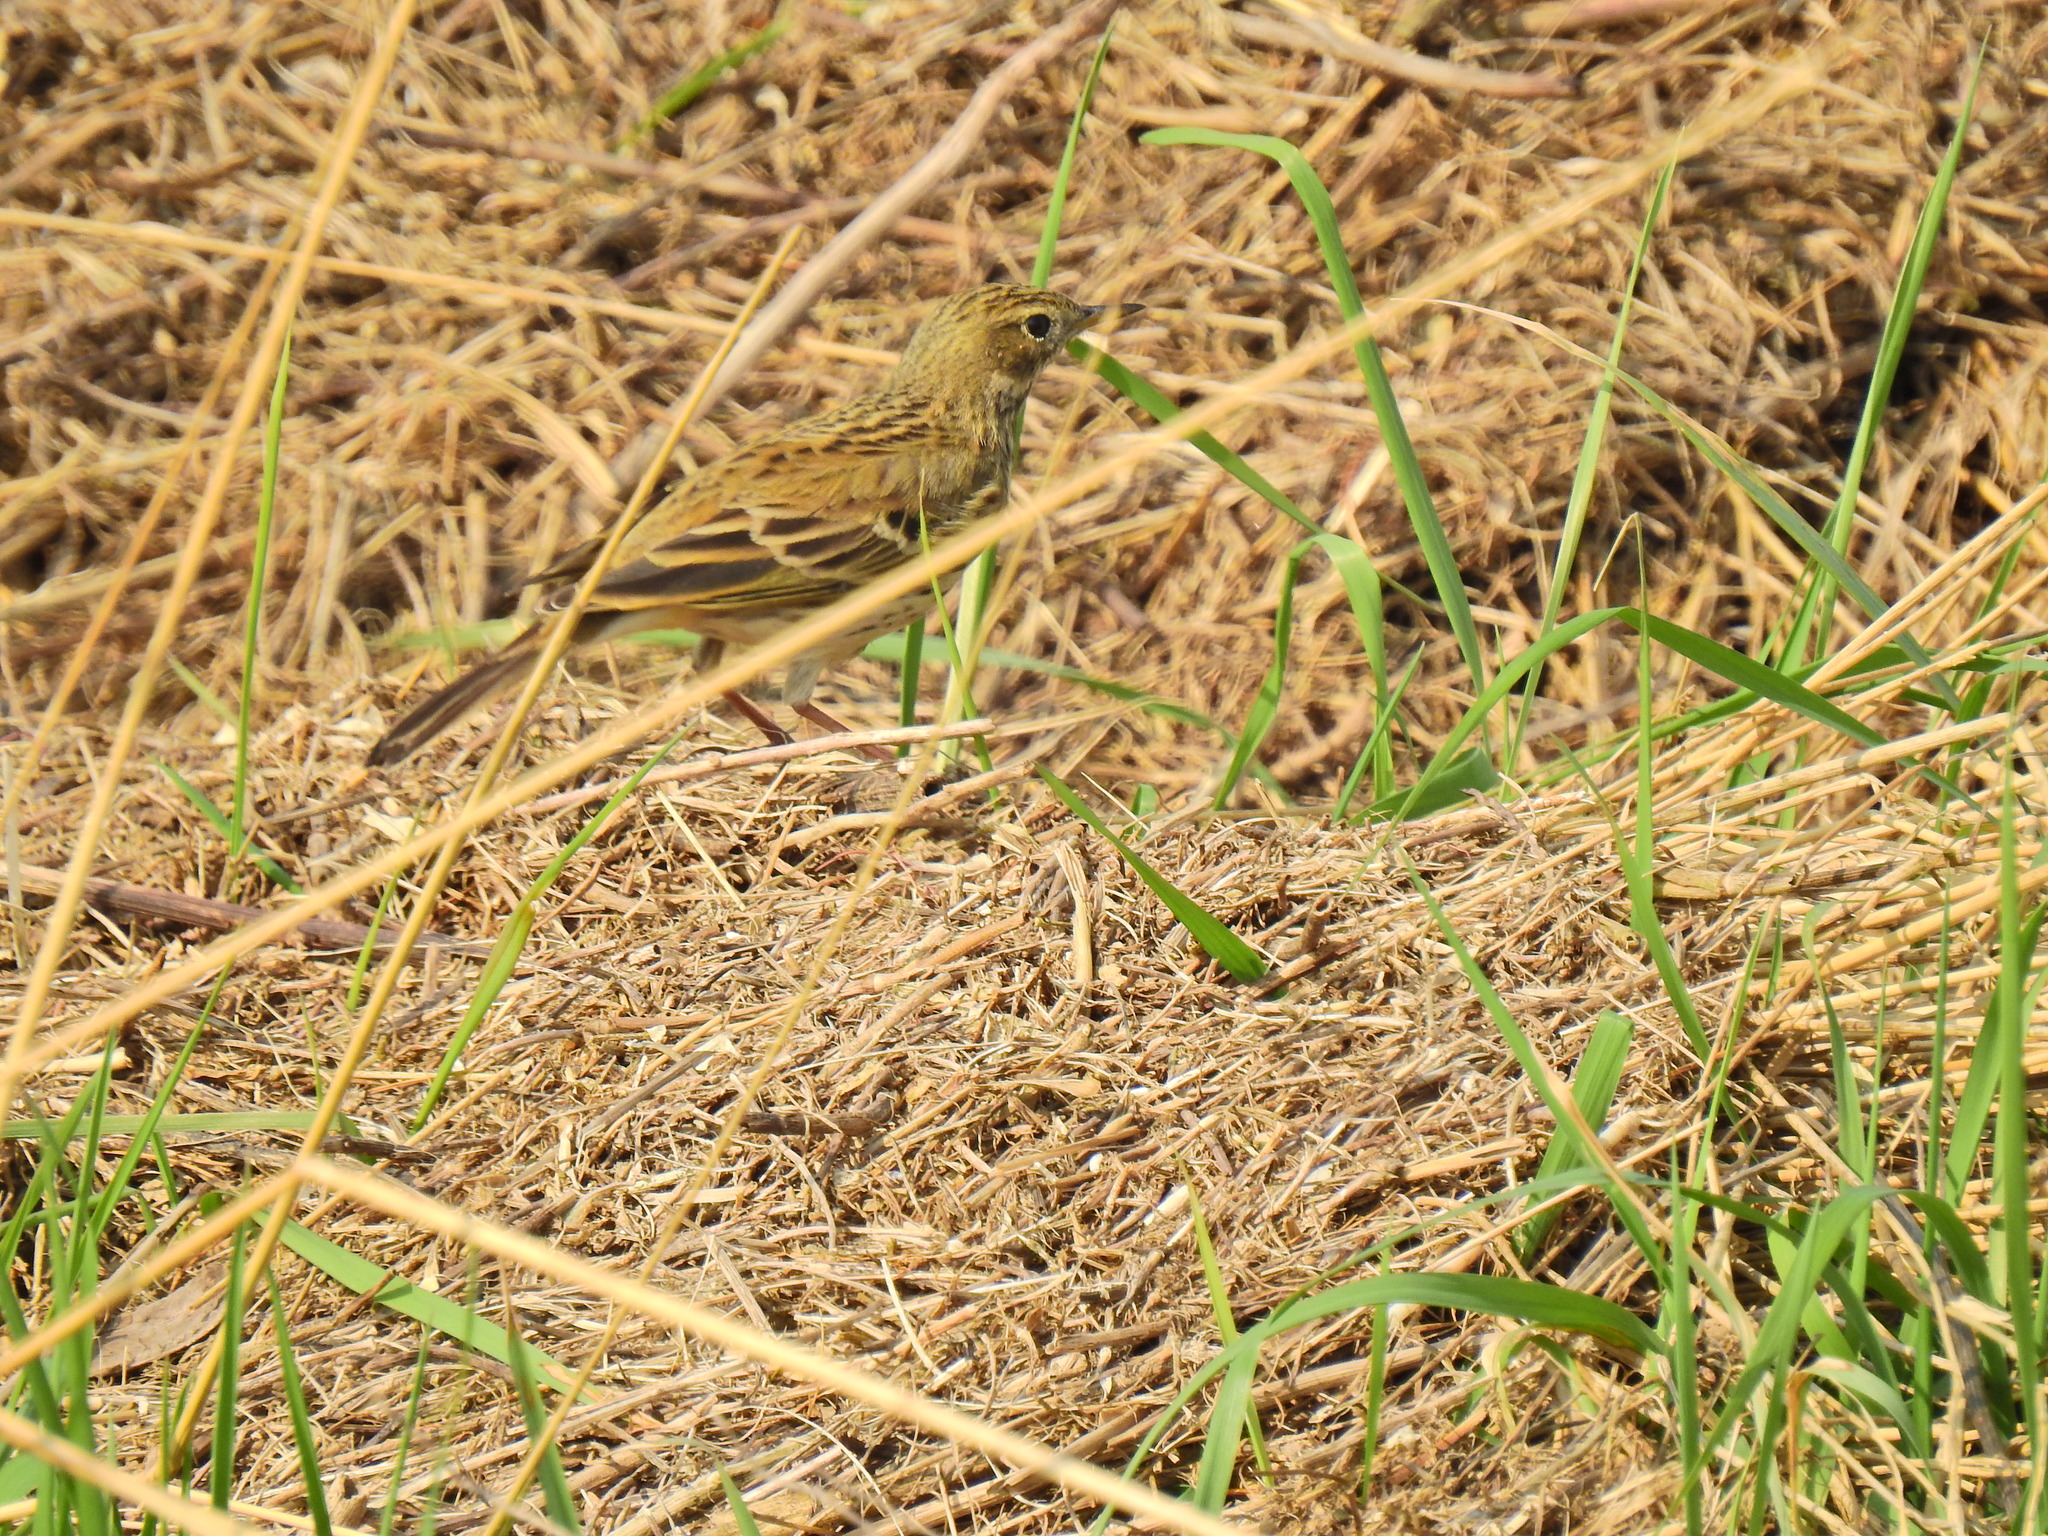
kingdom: Animalia
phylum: Chordata
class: Aves
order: Passeriformes
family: Motacillidae
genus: Anthus
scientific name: Anthus pratensis
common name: Meadow pipit
